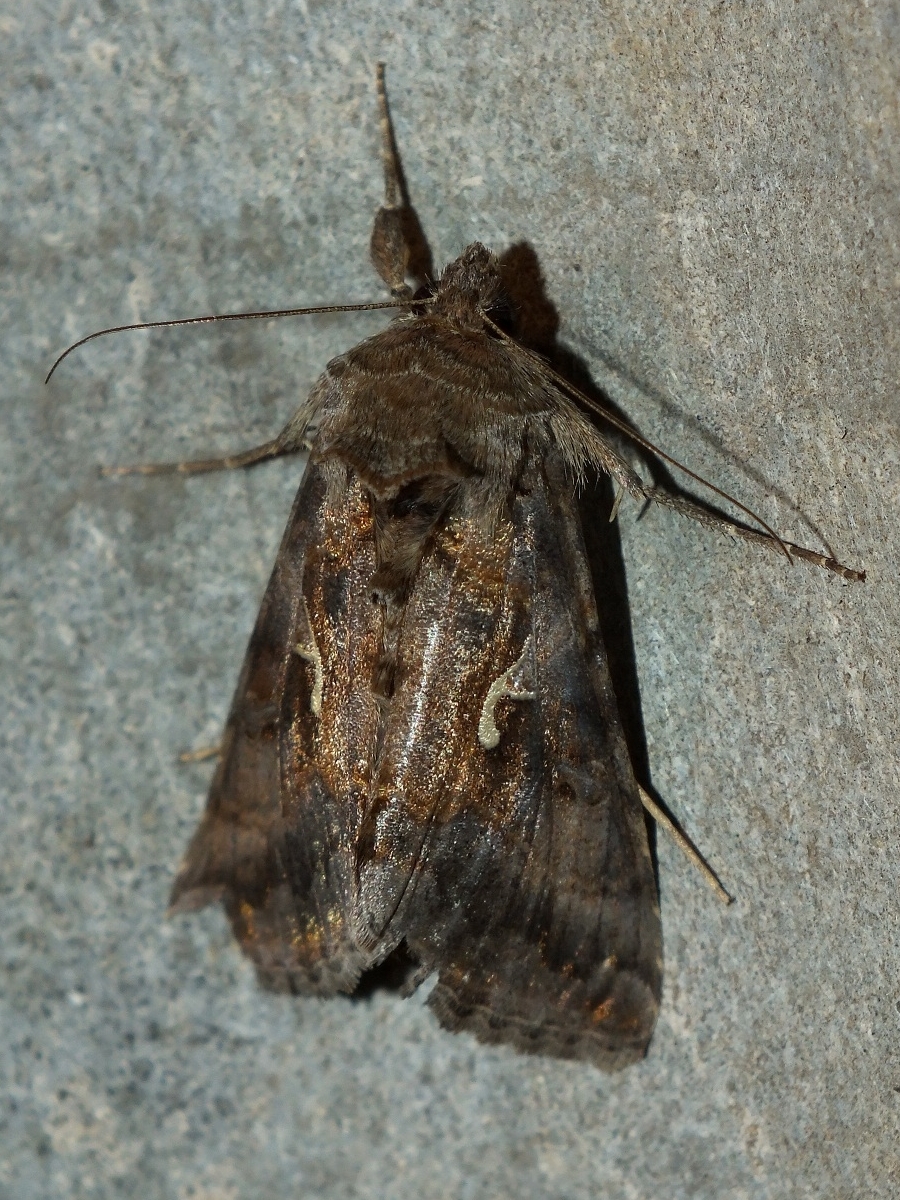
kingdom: Animalia
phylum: Arthropoda
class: Insecta
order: Lepidoptera
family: Noctuidae
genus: Autographa
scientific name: Autographa gamma
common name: Silver y
